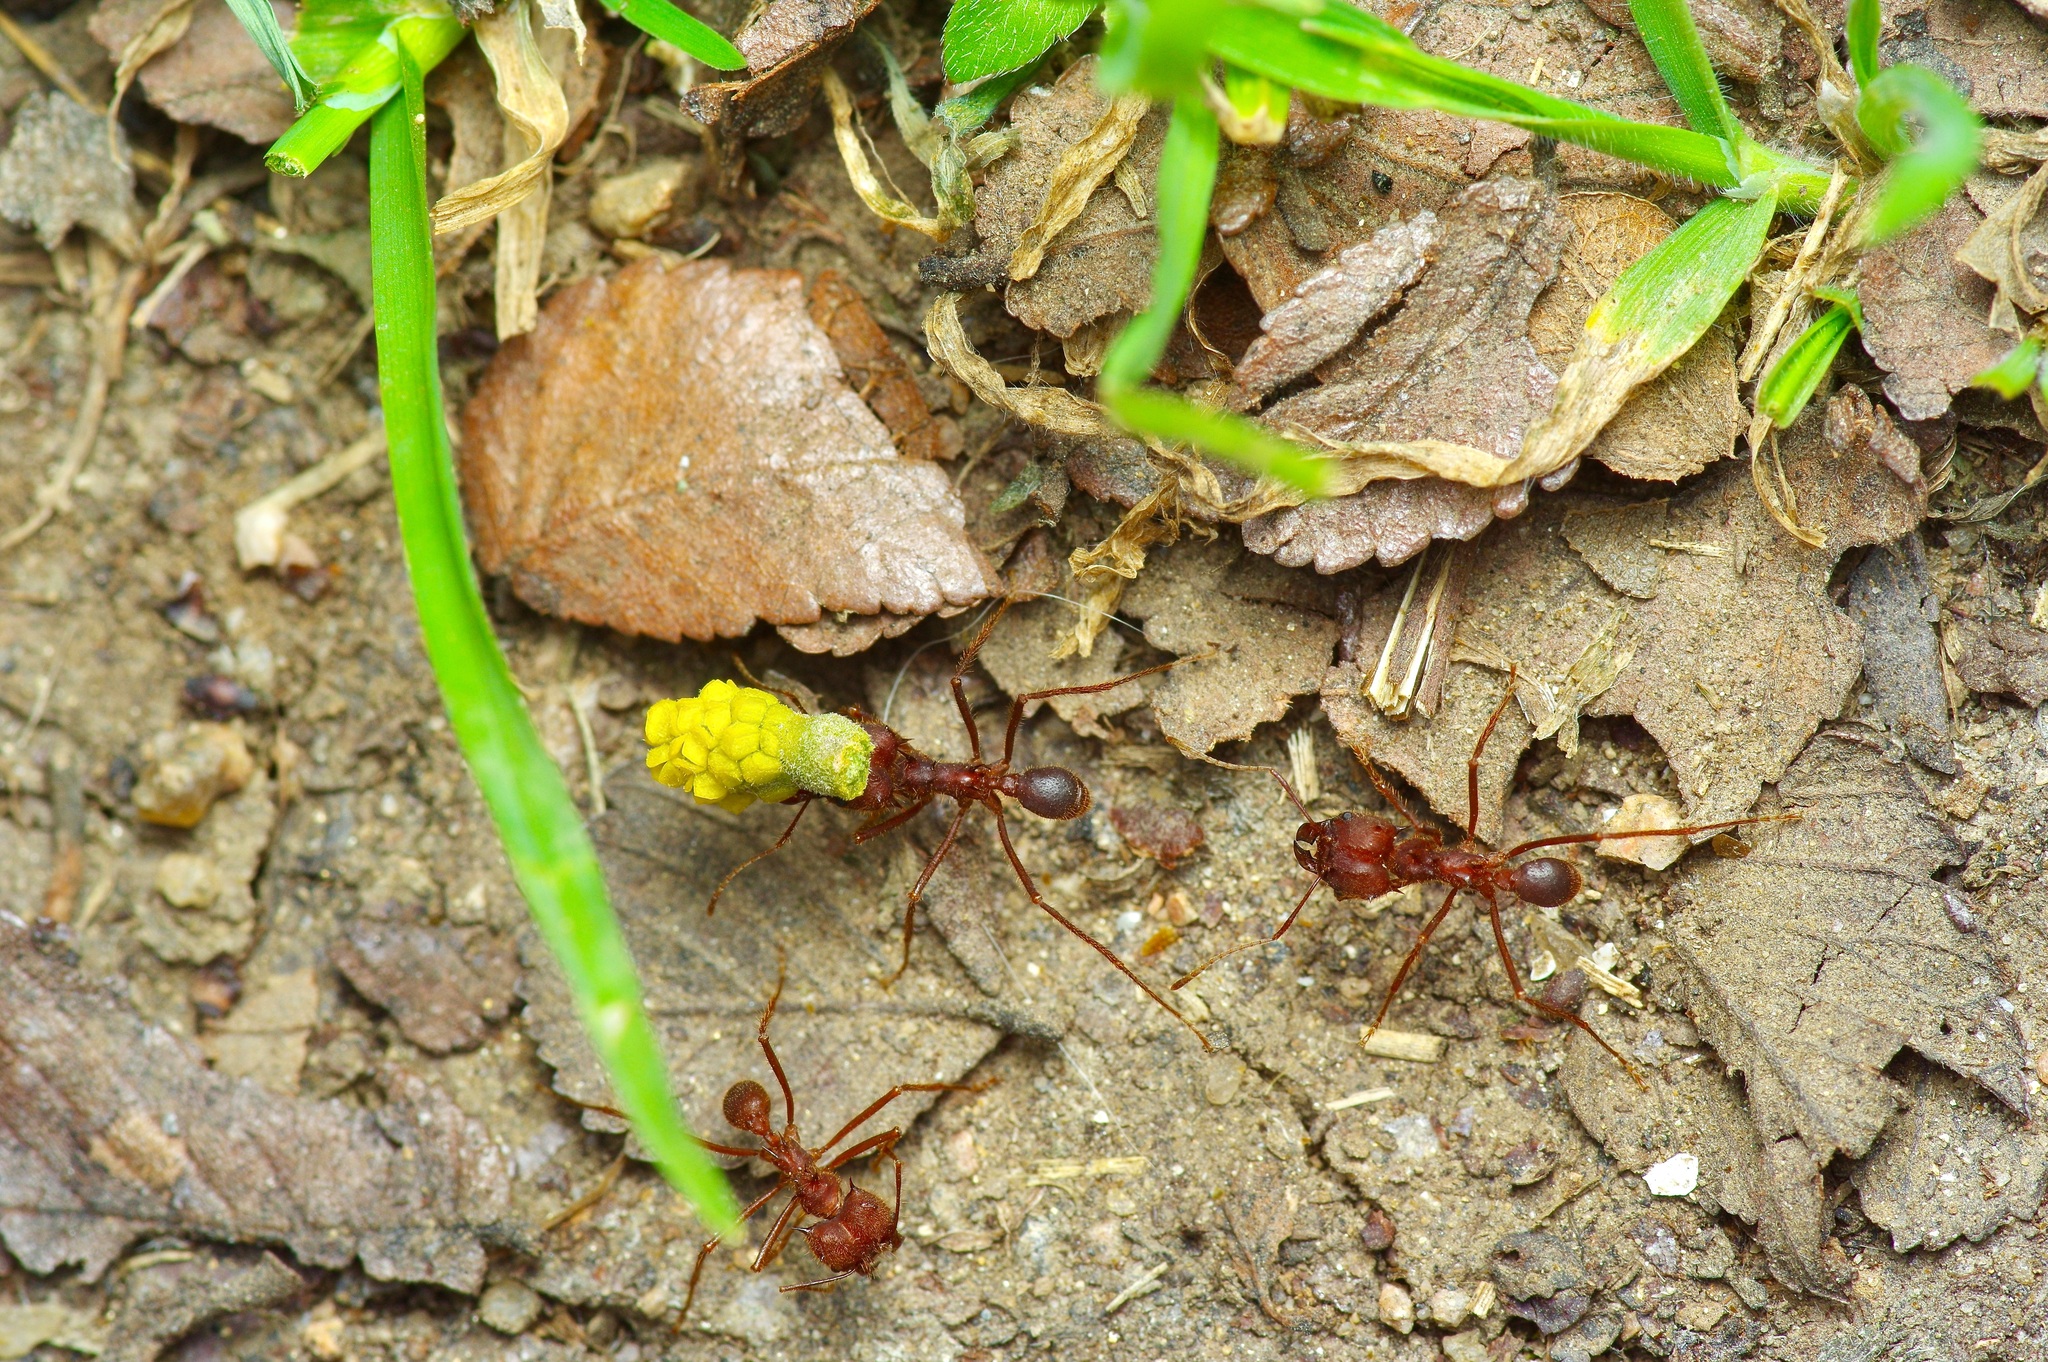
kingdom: Animalia
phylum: Arthropoda
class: Insecta
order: Hymenoptera
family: Formicidae
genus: Atta
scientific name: Atta texana
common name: Texas leafcutting ant
